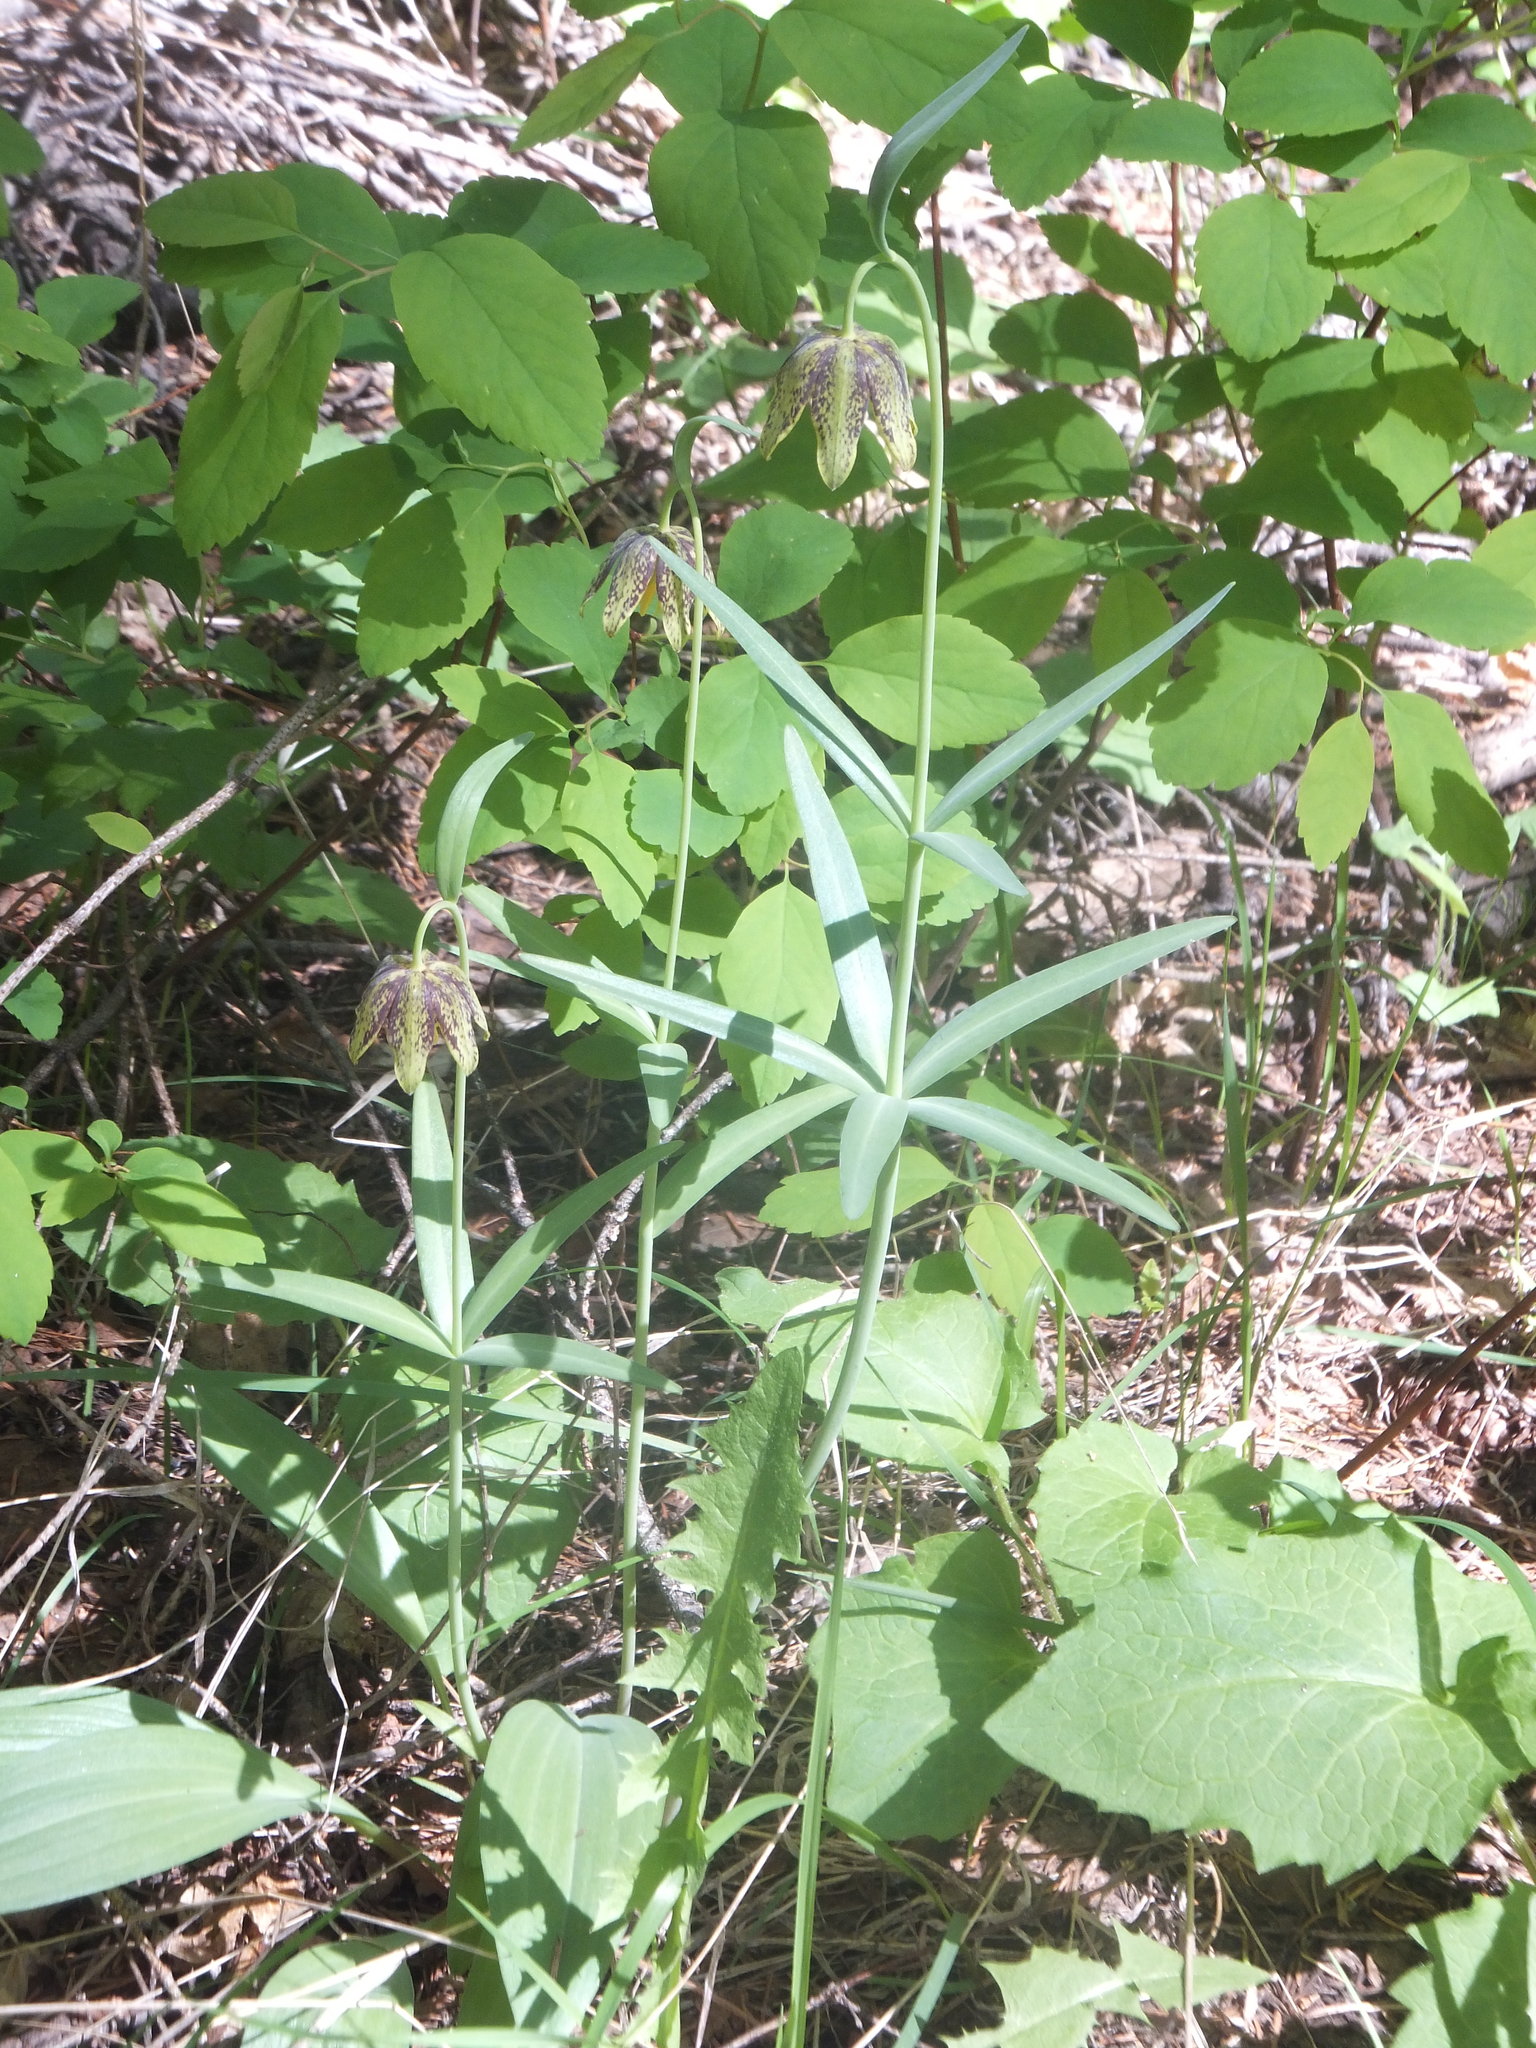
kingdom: Plantae
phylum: Tracheophyta
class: Liliopsida
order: Liliales
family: Liliaceae
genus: Fritillaria
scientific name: Fritillaria affinis
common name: Ojai fritillary
